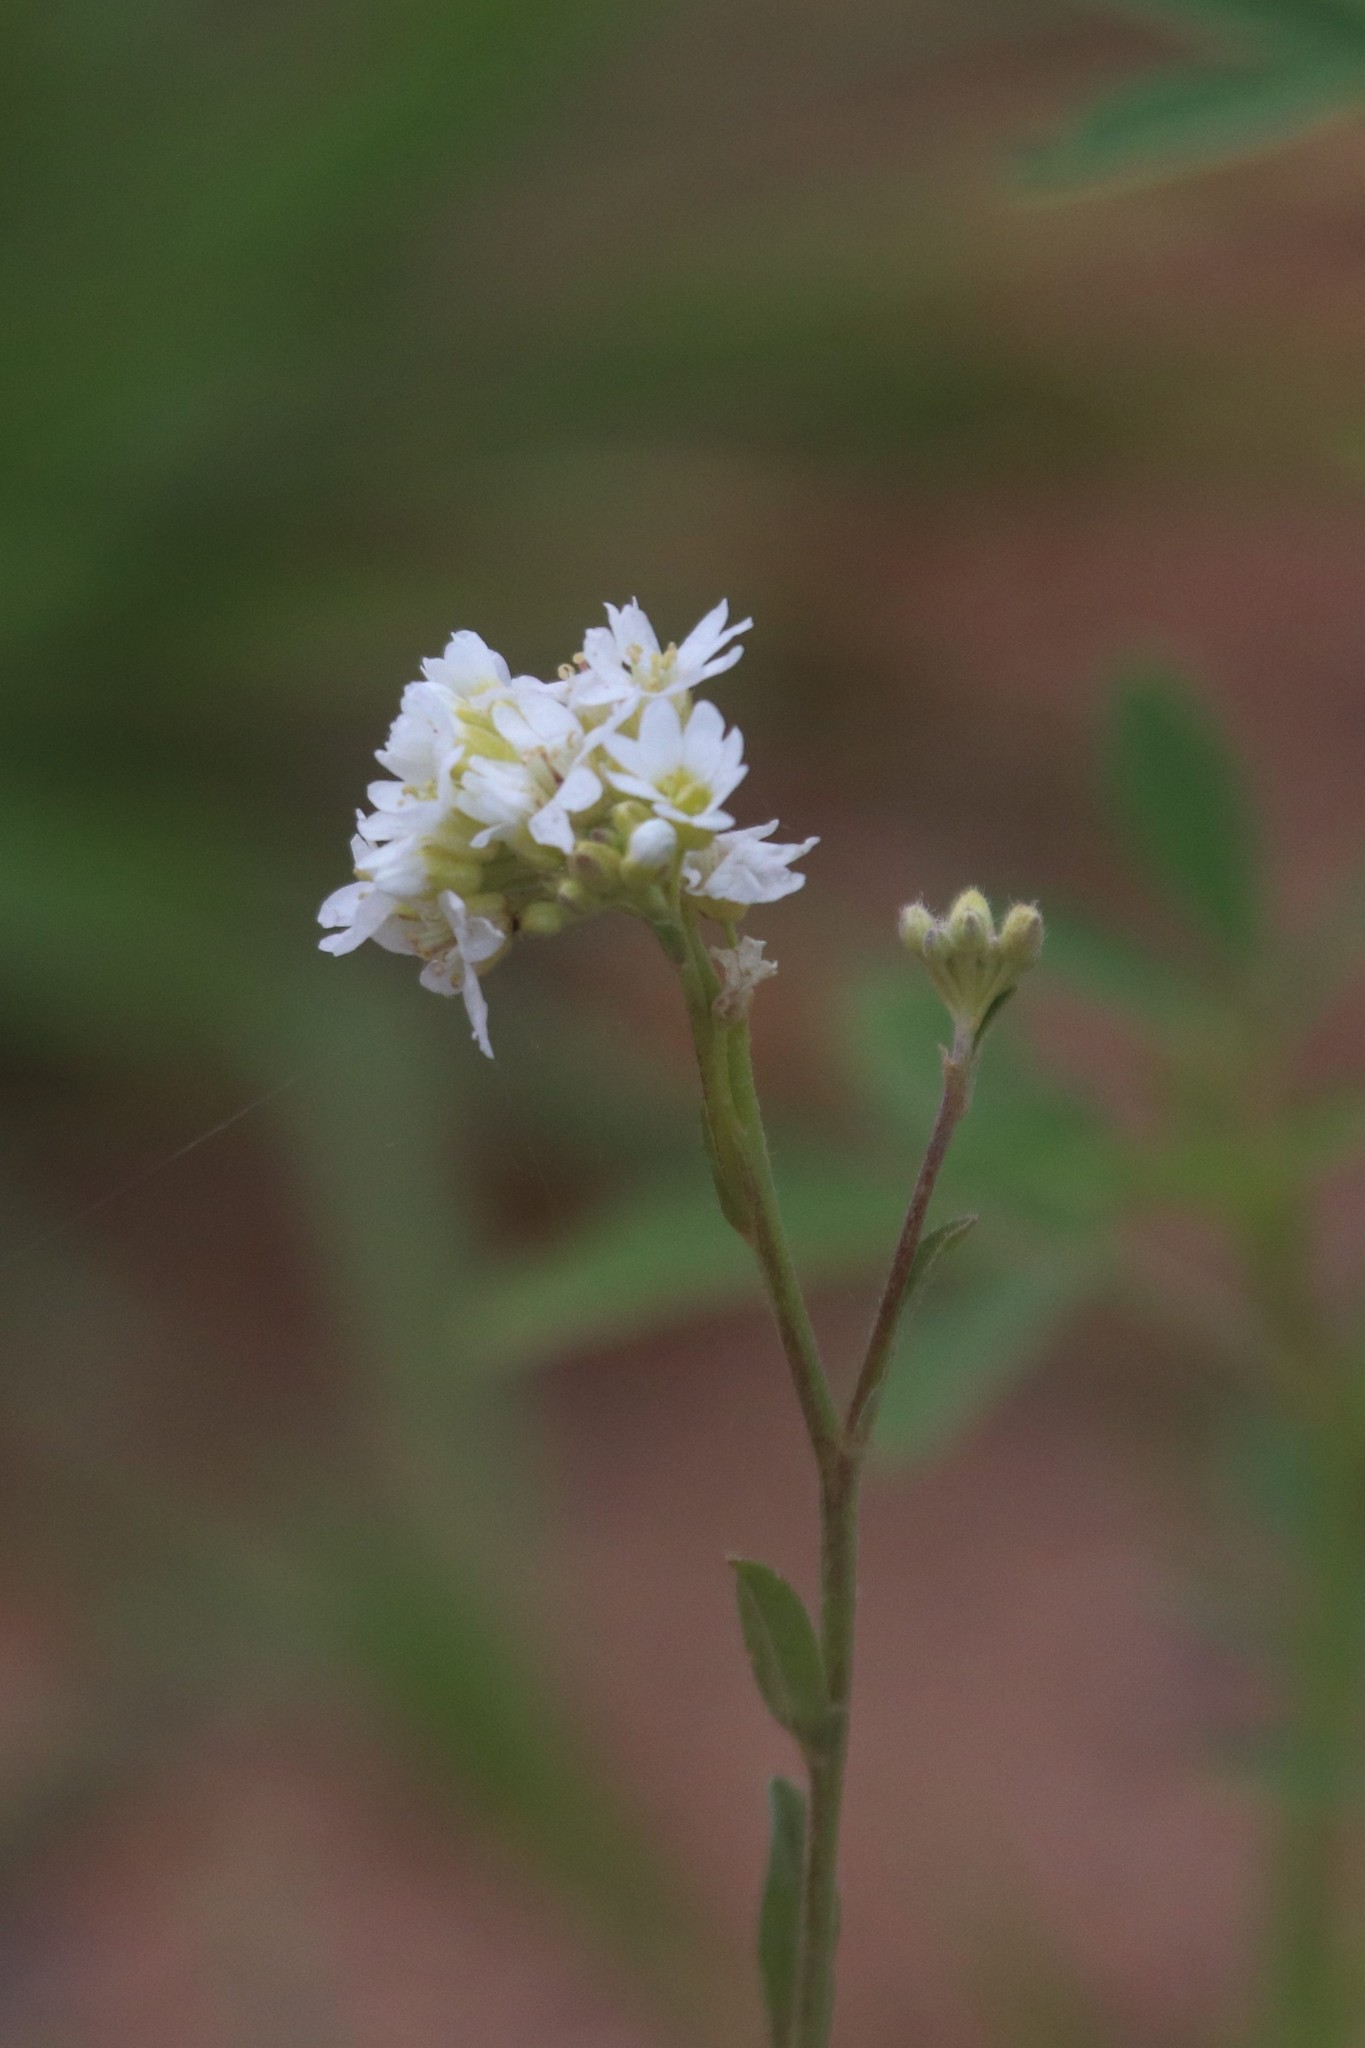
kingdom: Plantae
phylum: Tracheophyta
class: Magnoliopsida
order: Brassicales
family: Brassicaceae
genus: Berteroa
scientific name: Berteroa incana
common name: Hoary alison
